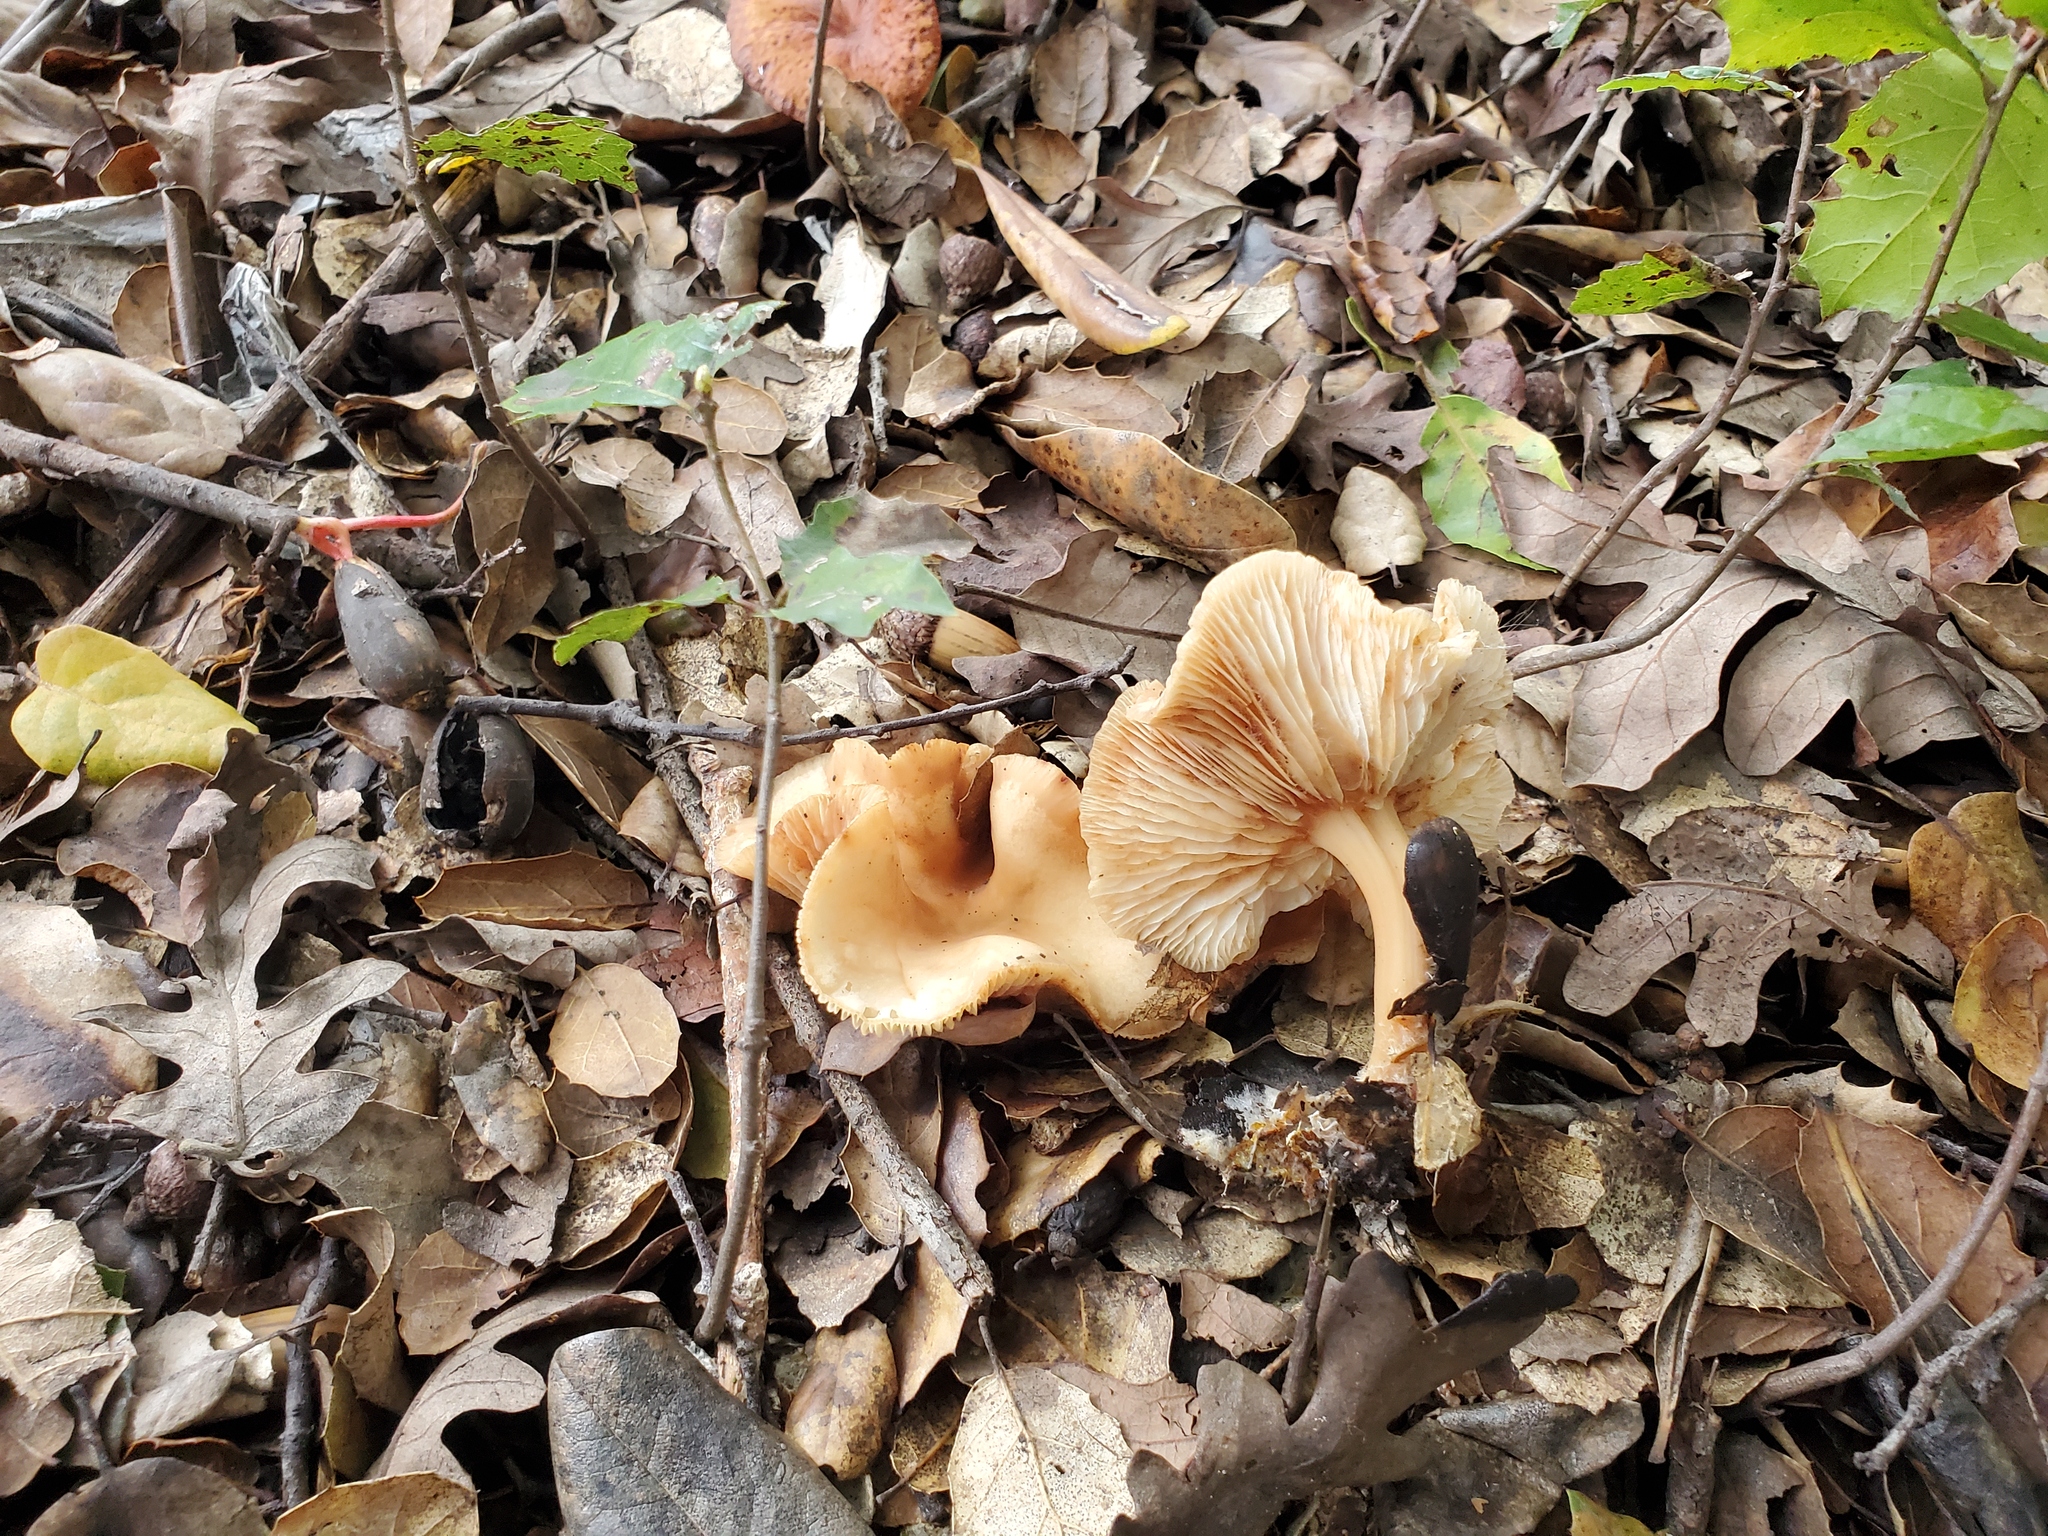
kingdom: Fungi
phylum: Basidiomycota
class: Agaricomycetes
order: Agaricales
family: Omphalotaceae
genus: Gymnopus
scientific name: Gymnopus dryophilus
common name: Penny top
